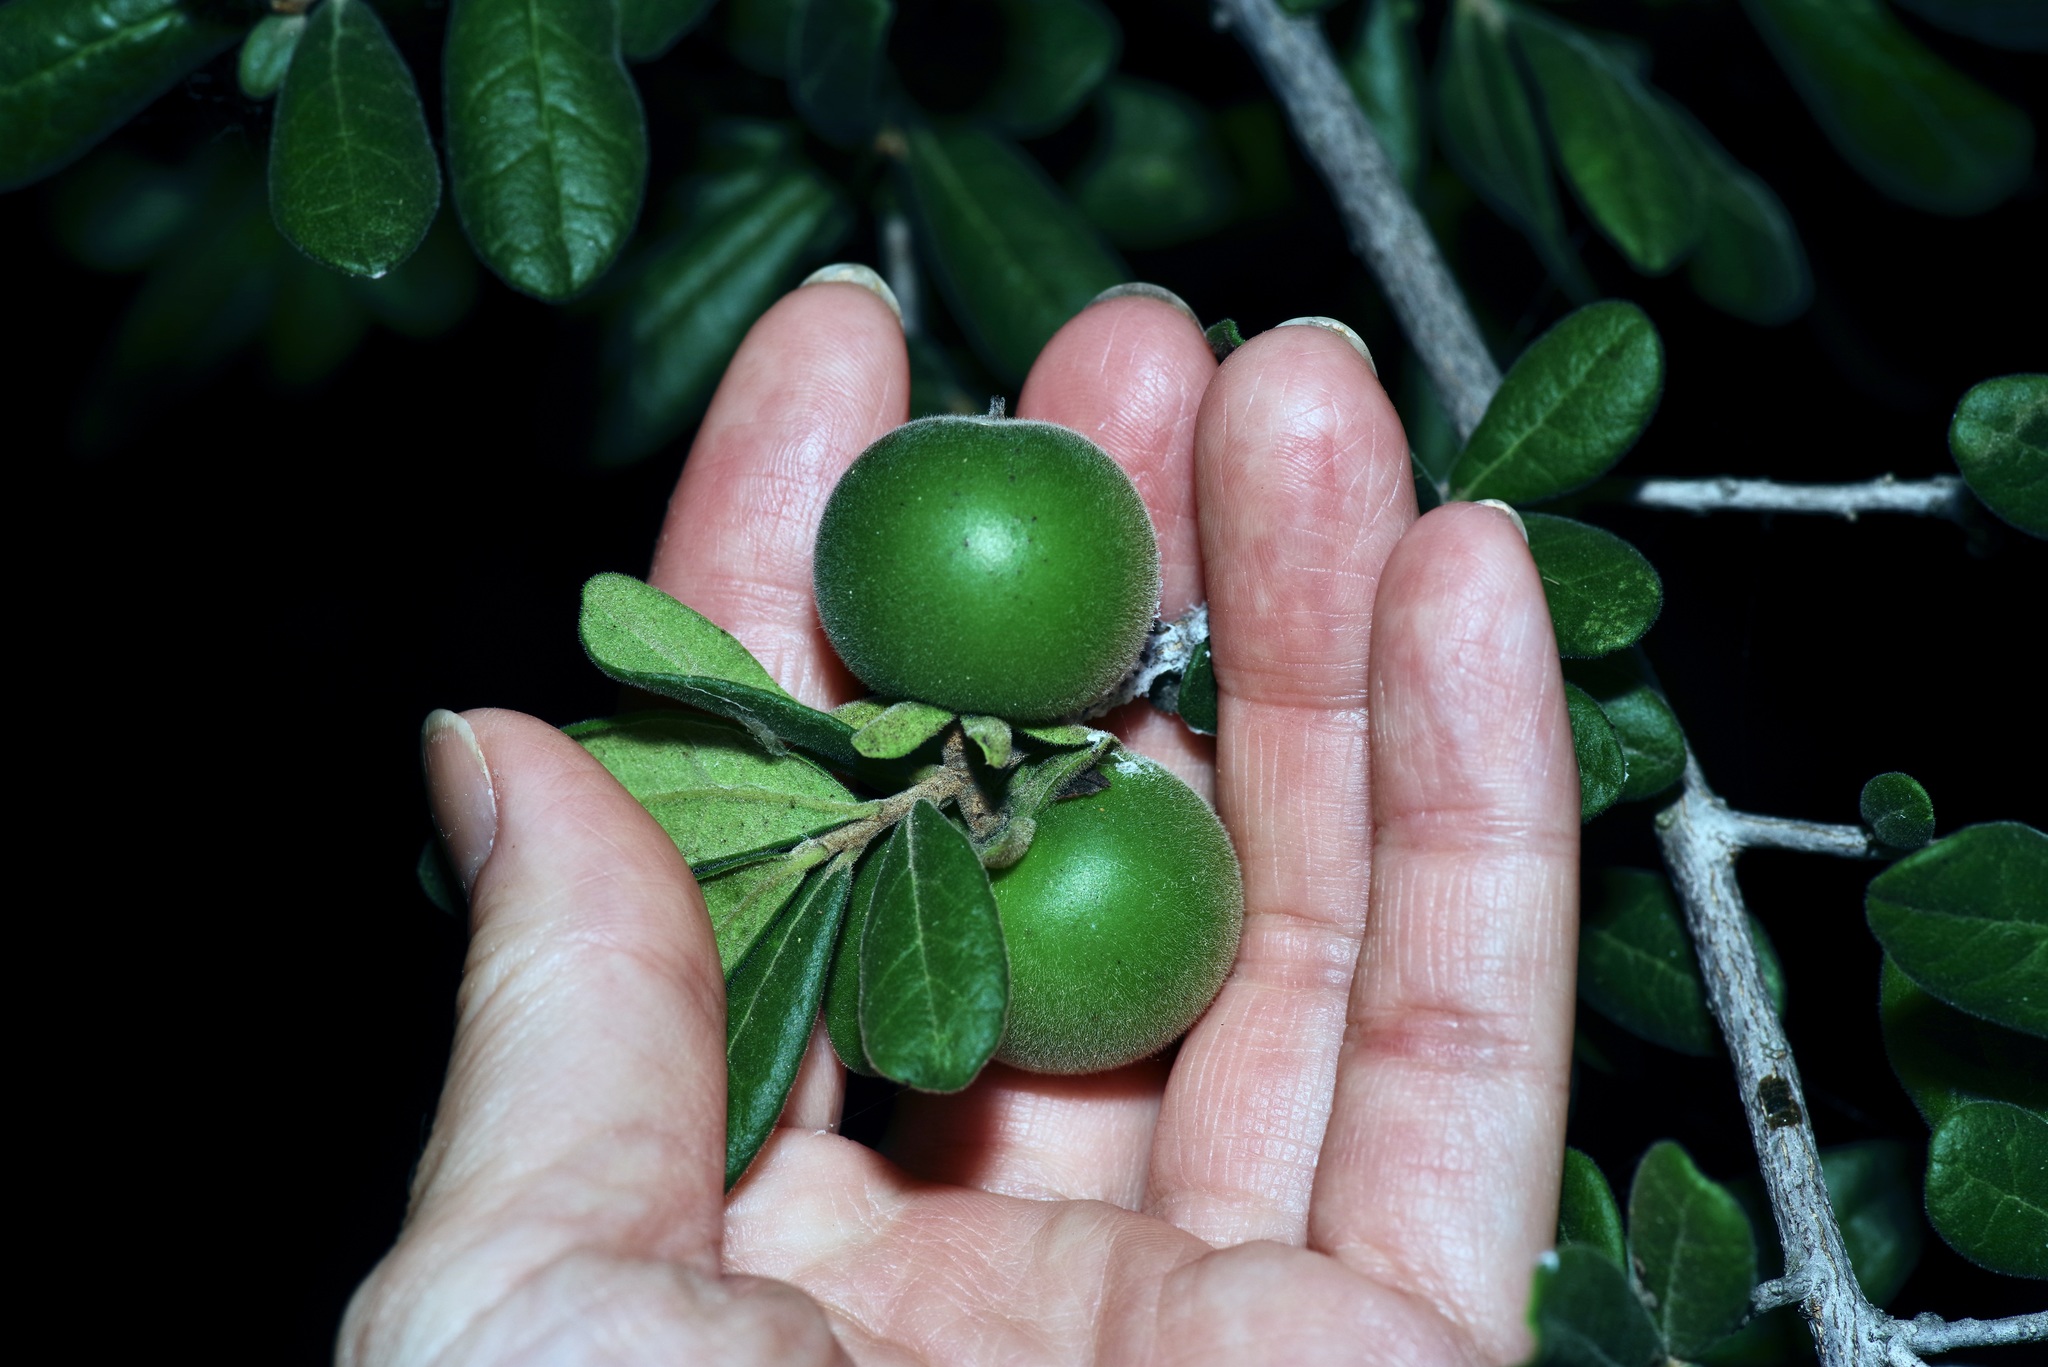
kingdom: Plantae
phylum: Tracheophyta
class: Magnoliopsida
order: Ericales
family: Ebenaceae
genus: Diospyros
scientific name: Diospyros texana
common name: Texas persimmon
